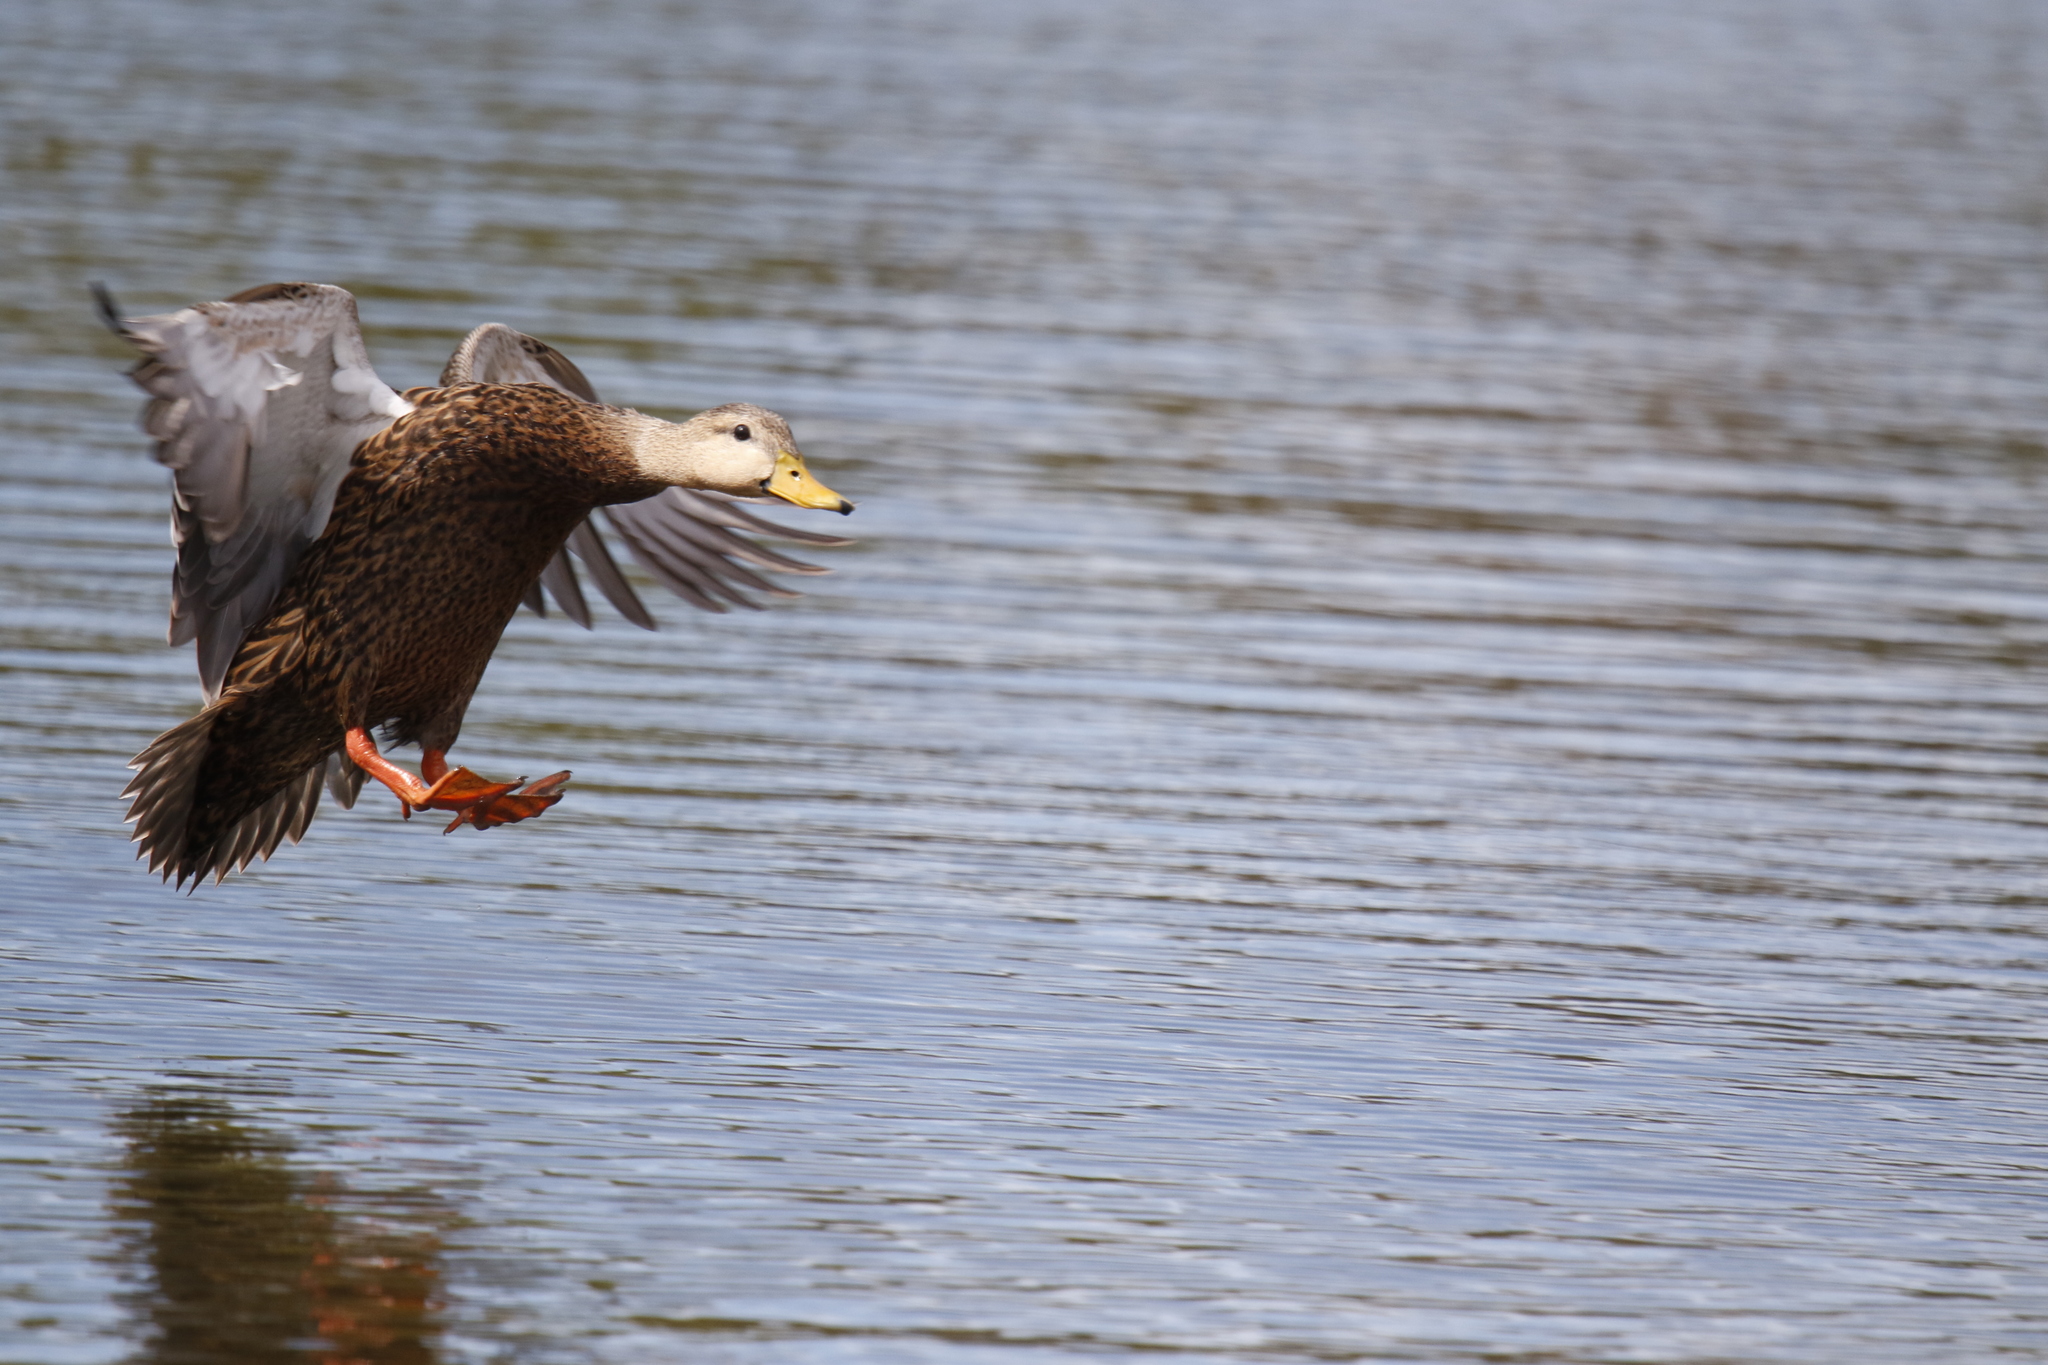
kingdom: Animalia
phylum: Chordata
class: Aves
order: Anseriformes
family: Anatidae
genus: Anas
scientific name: Anas fulvigula
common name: Mottled duck
